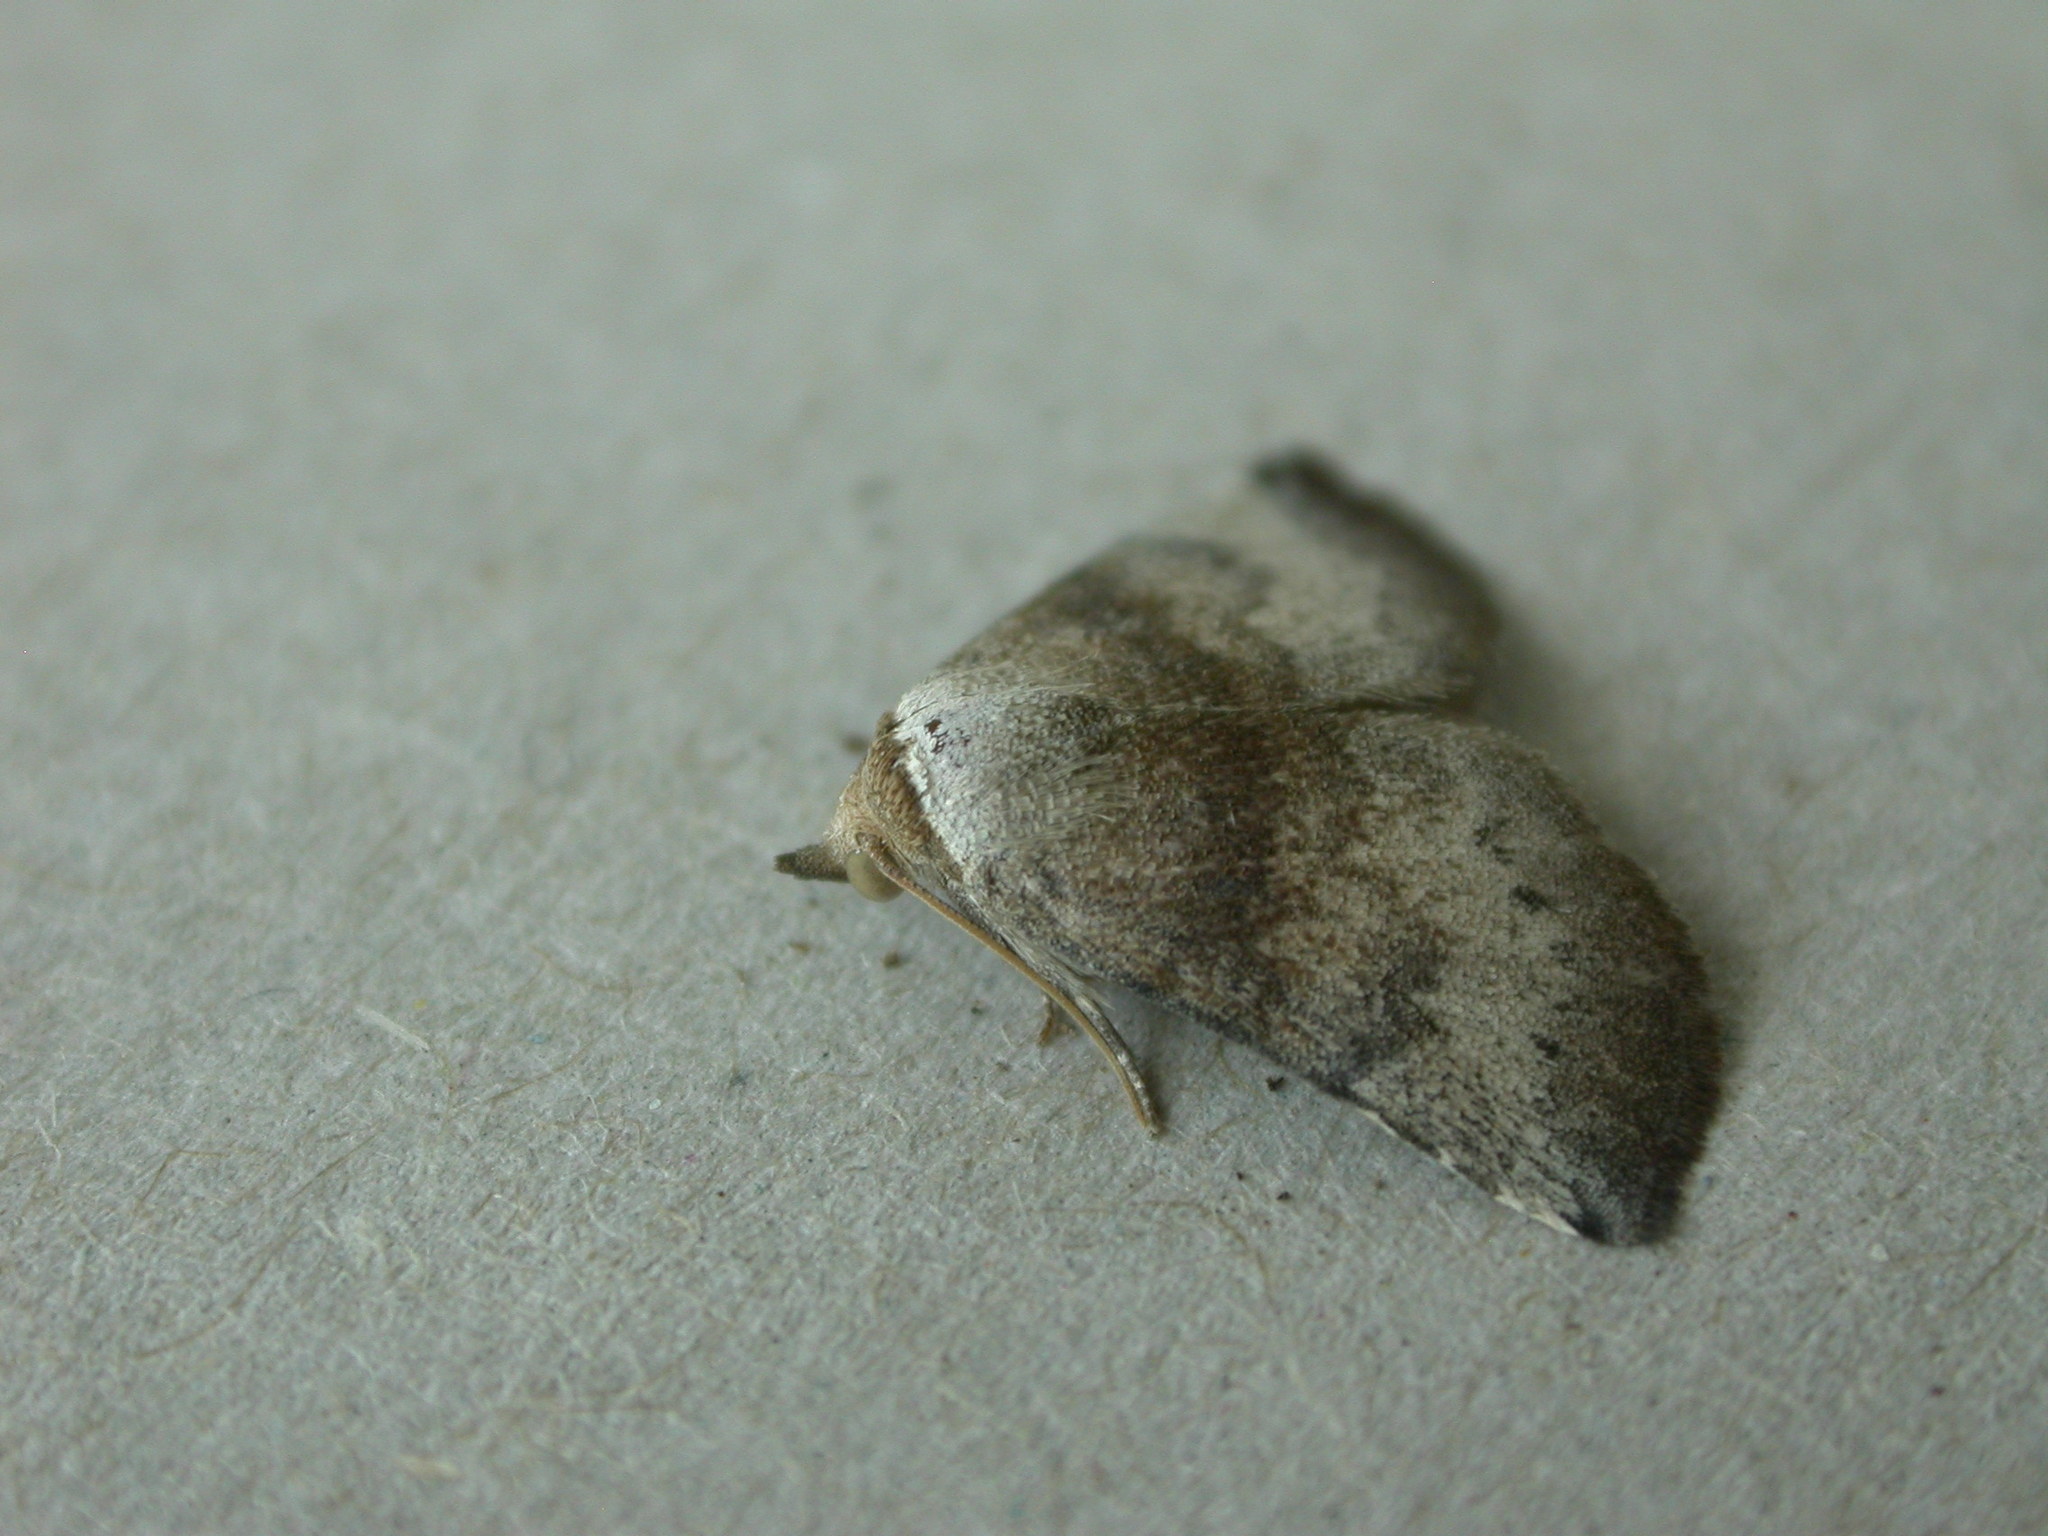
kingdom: Animalia
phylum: Arthropoda
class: Insecta
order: Lepidoptera
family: Noctuidae
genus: Mataeomera
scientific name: Mataeomera mesotaenia
